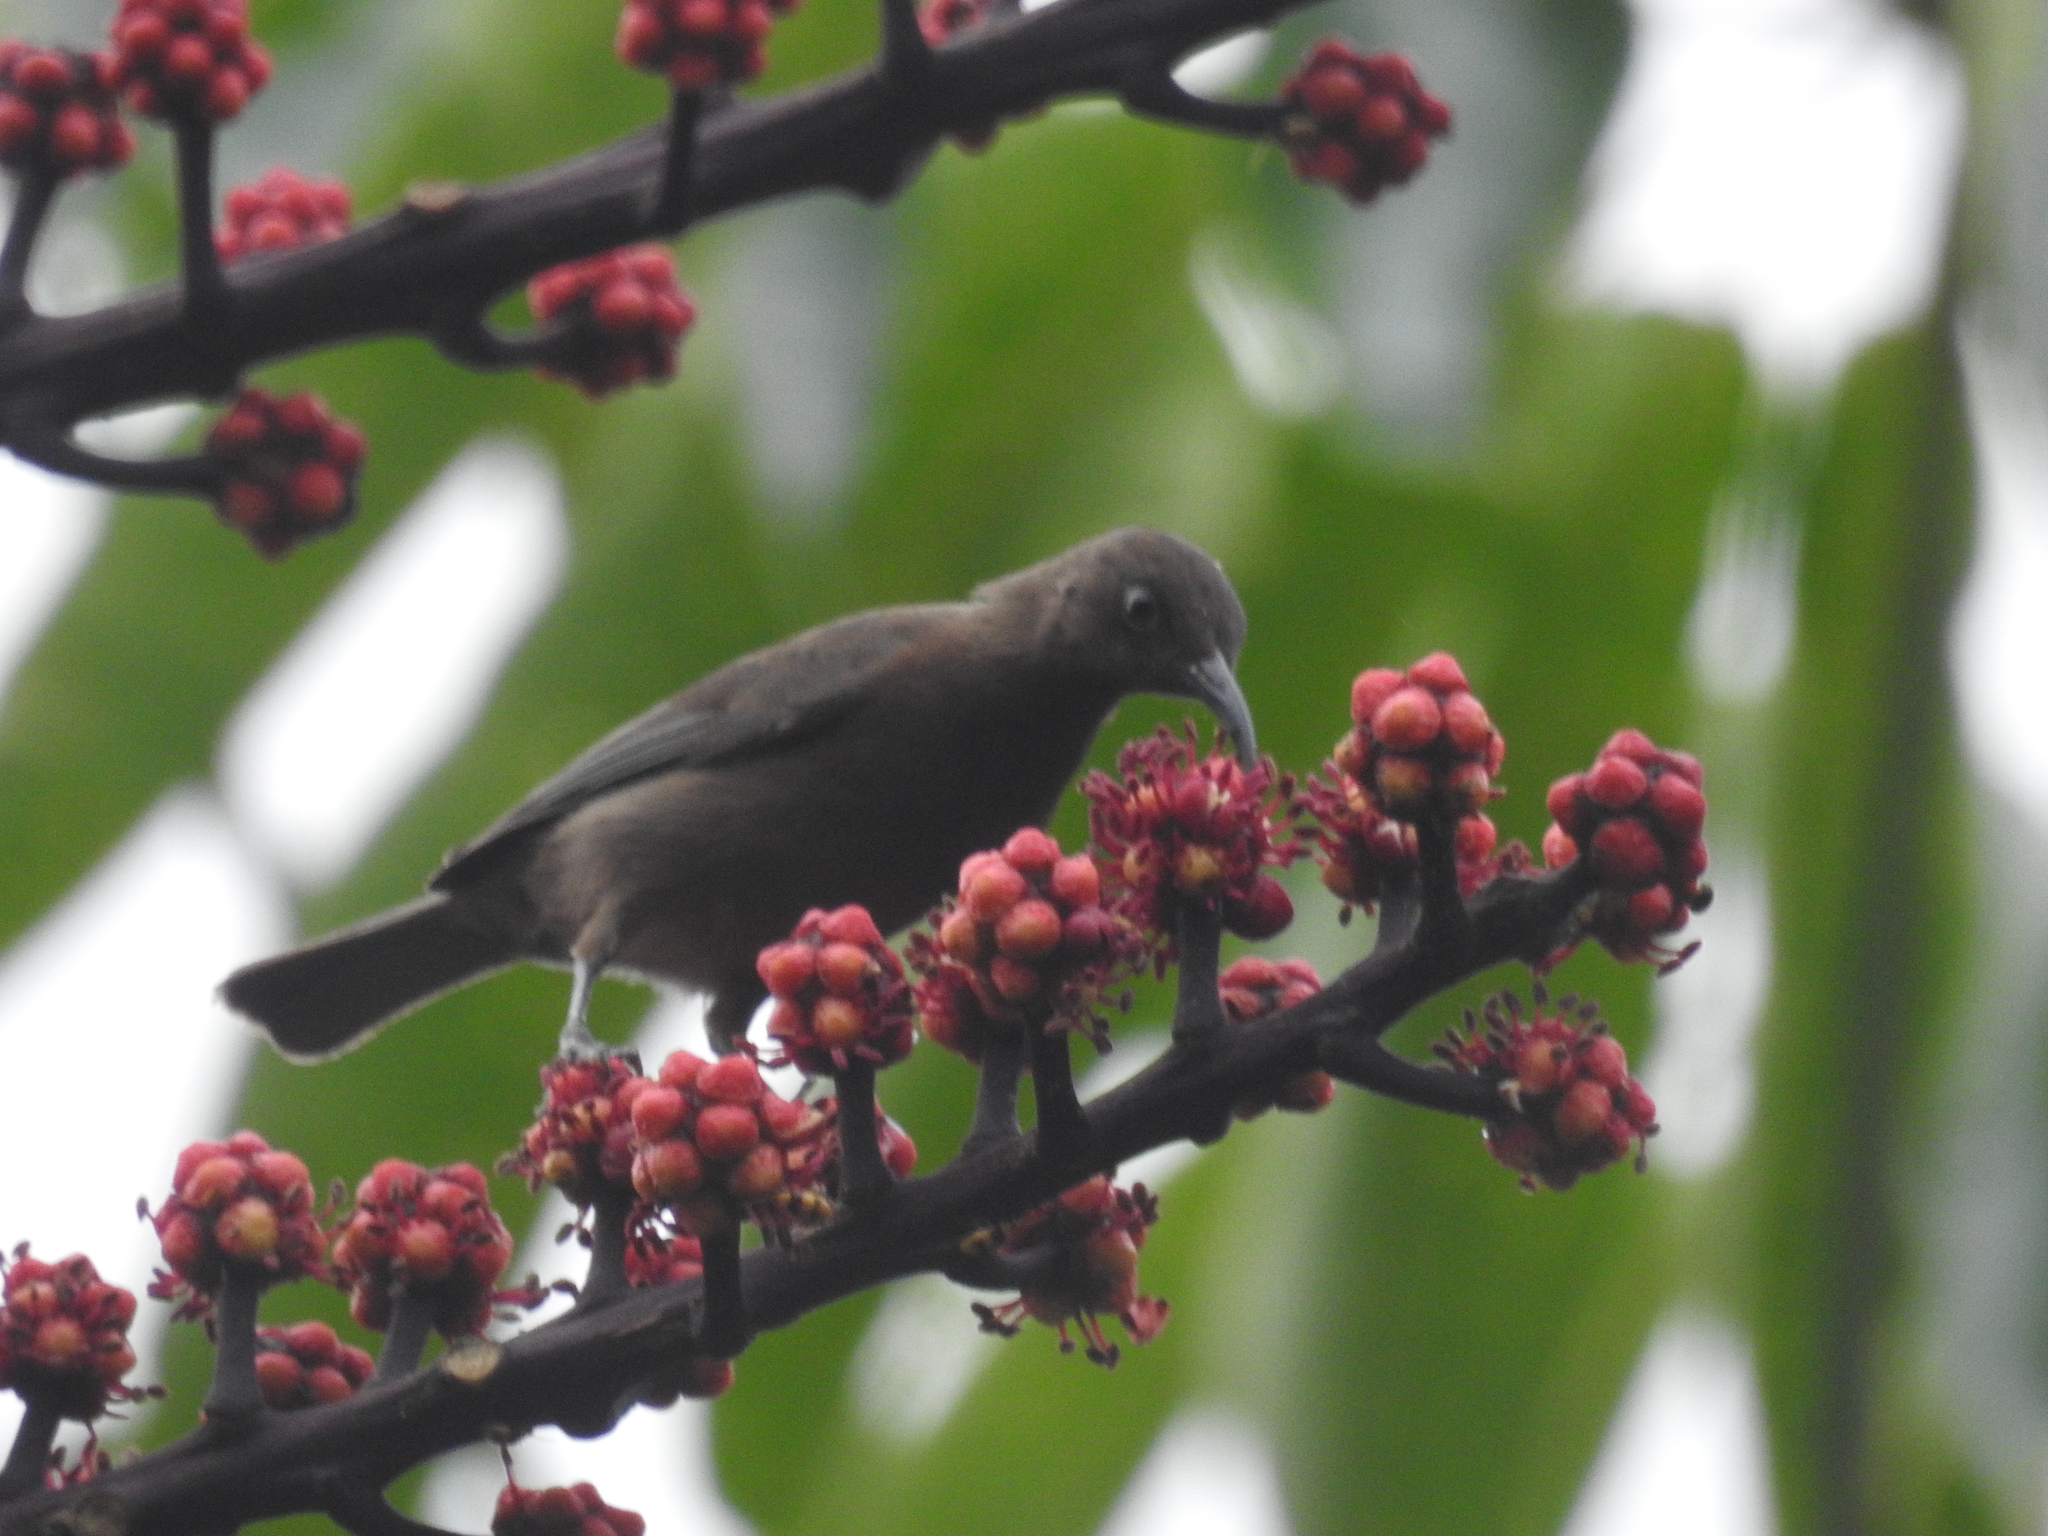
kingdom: Animalia
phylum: Chordata
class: Aves
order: Passeriformes
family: Meliphagidae
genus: Myzomela
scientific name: Myzomela obscura
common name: Dusky myzomela
